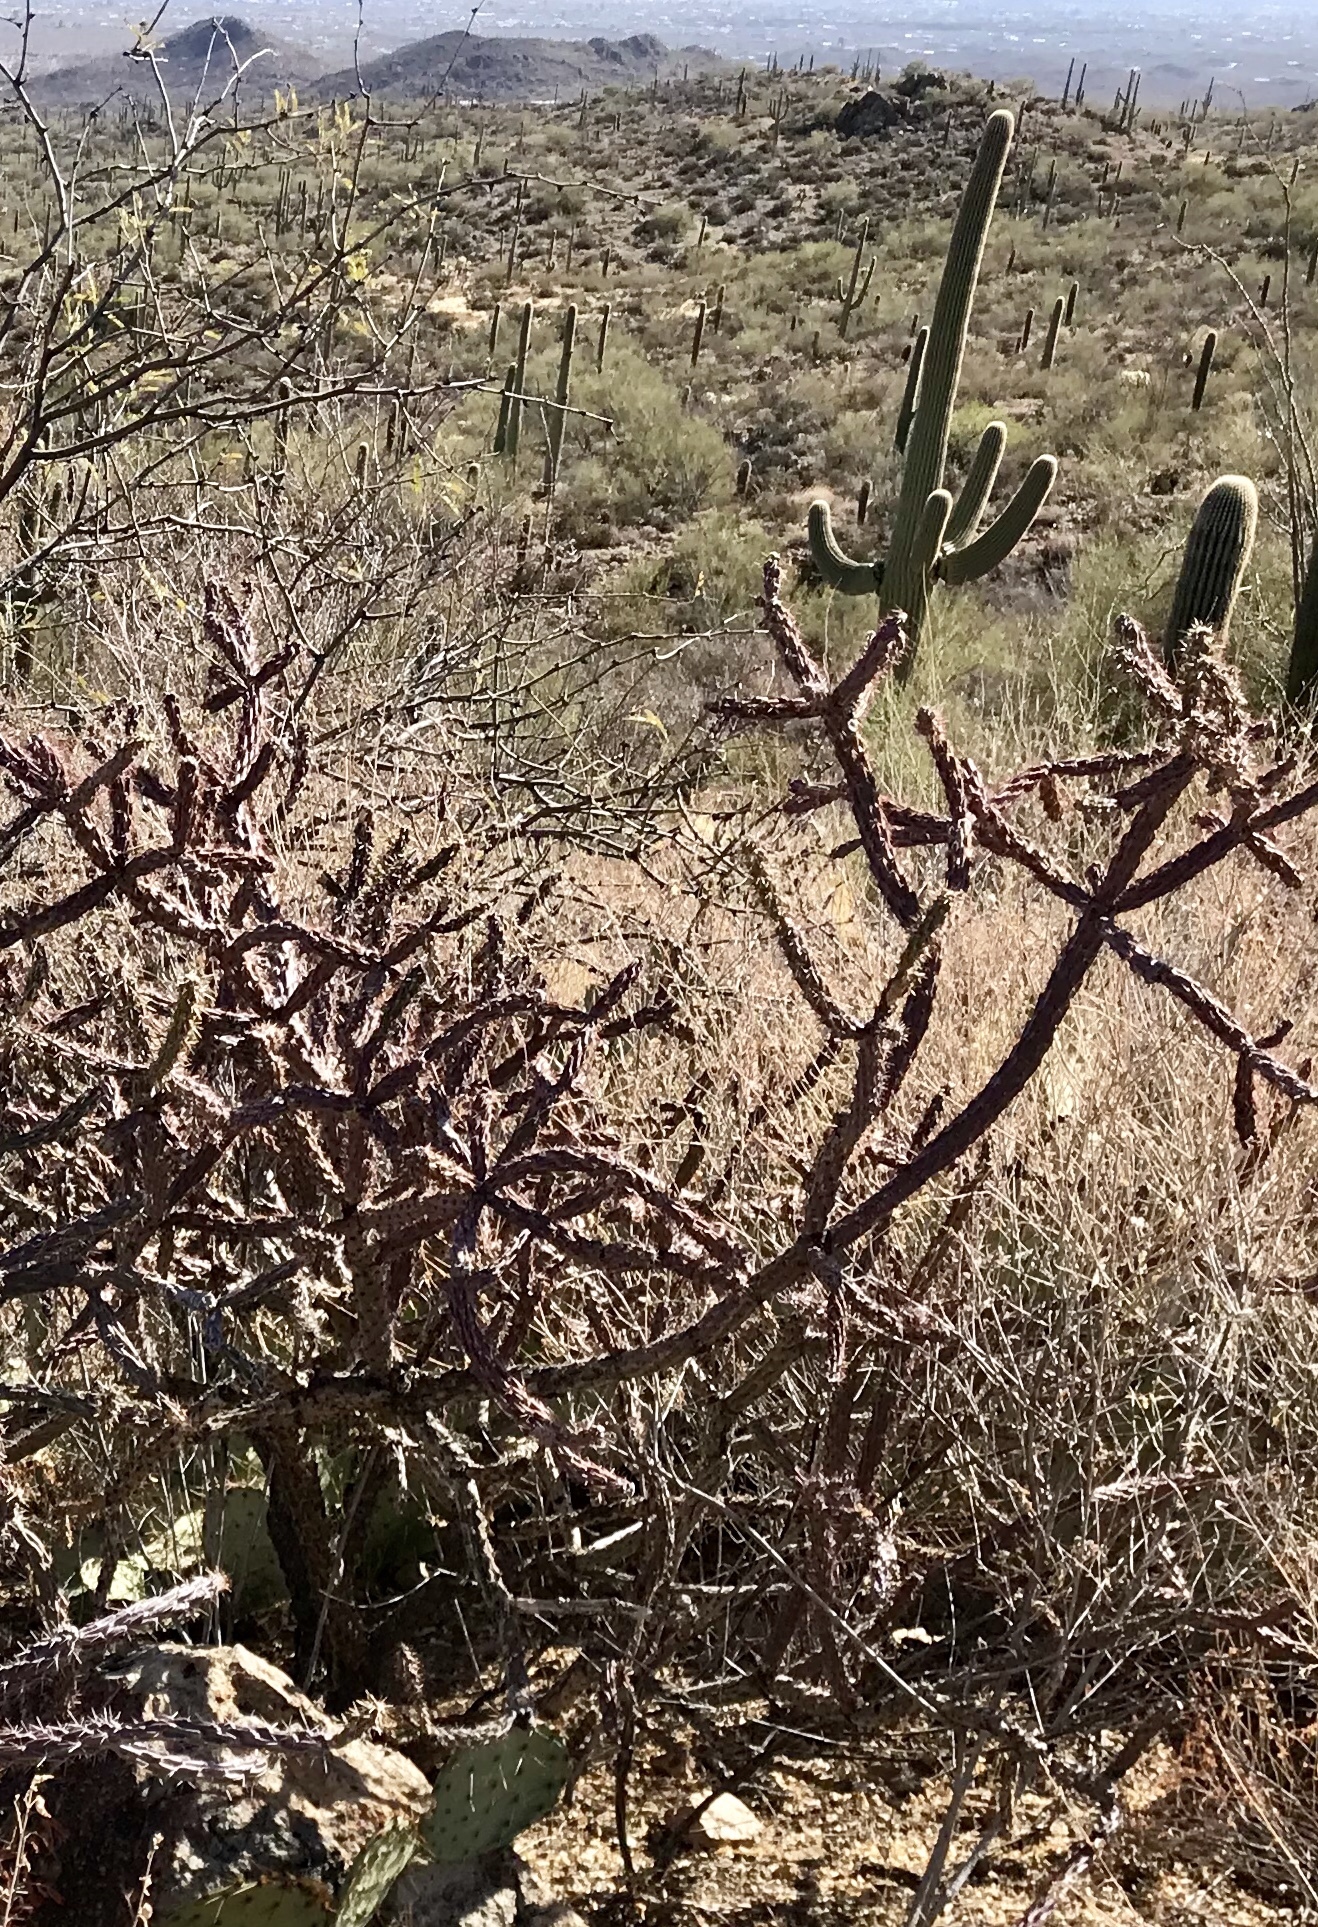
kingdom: Plantae
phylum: Tracheophyta
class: Magnoliopsida
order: Caryophyllales
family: Cactaceae
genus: Cylindropuntia
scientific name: Cylindropuntia thurberi
